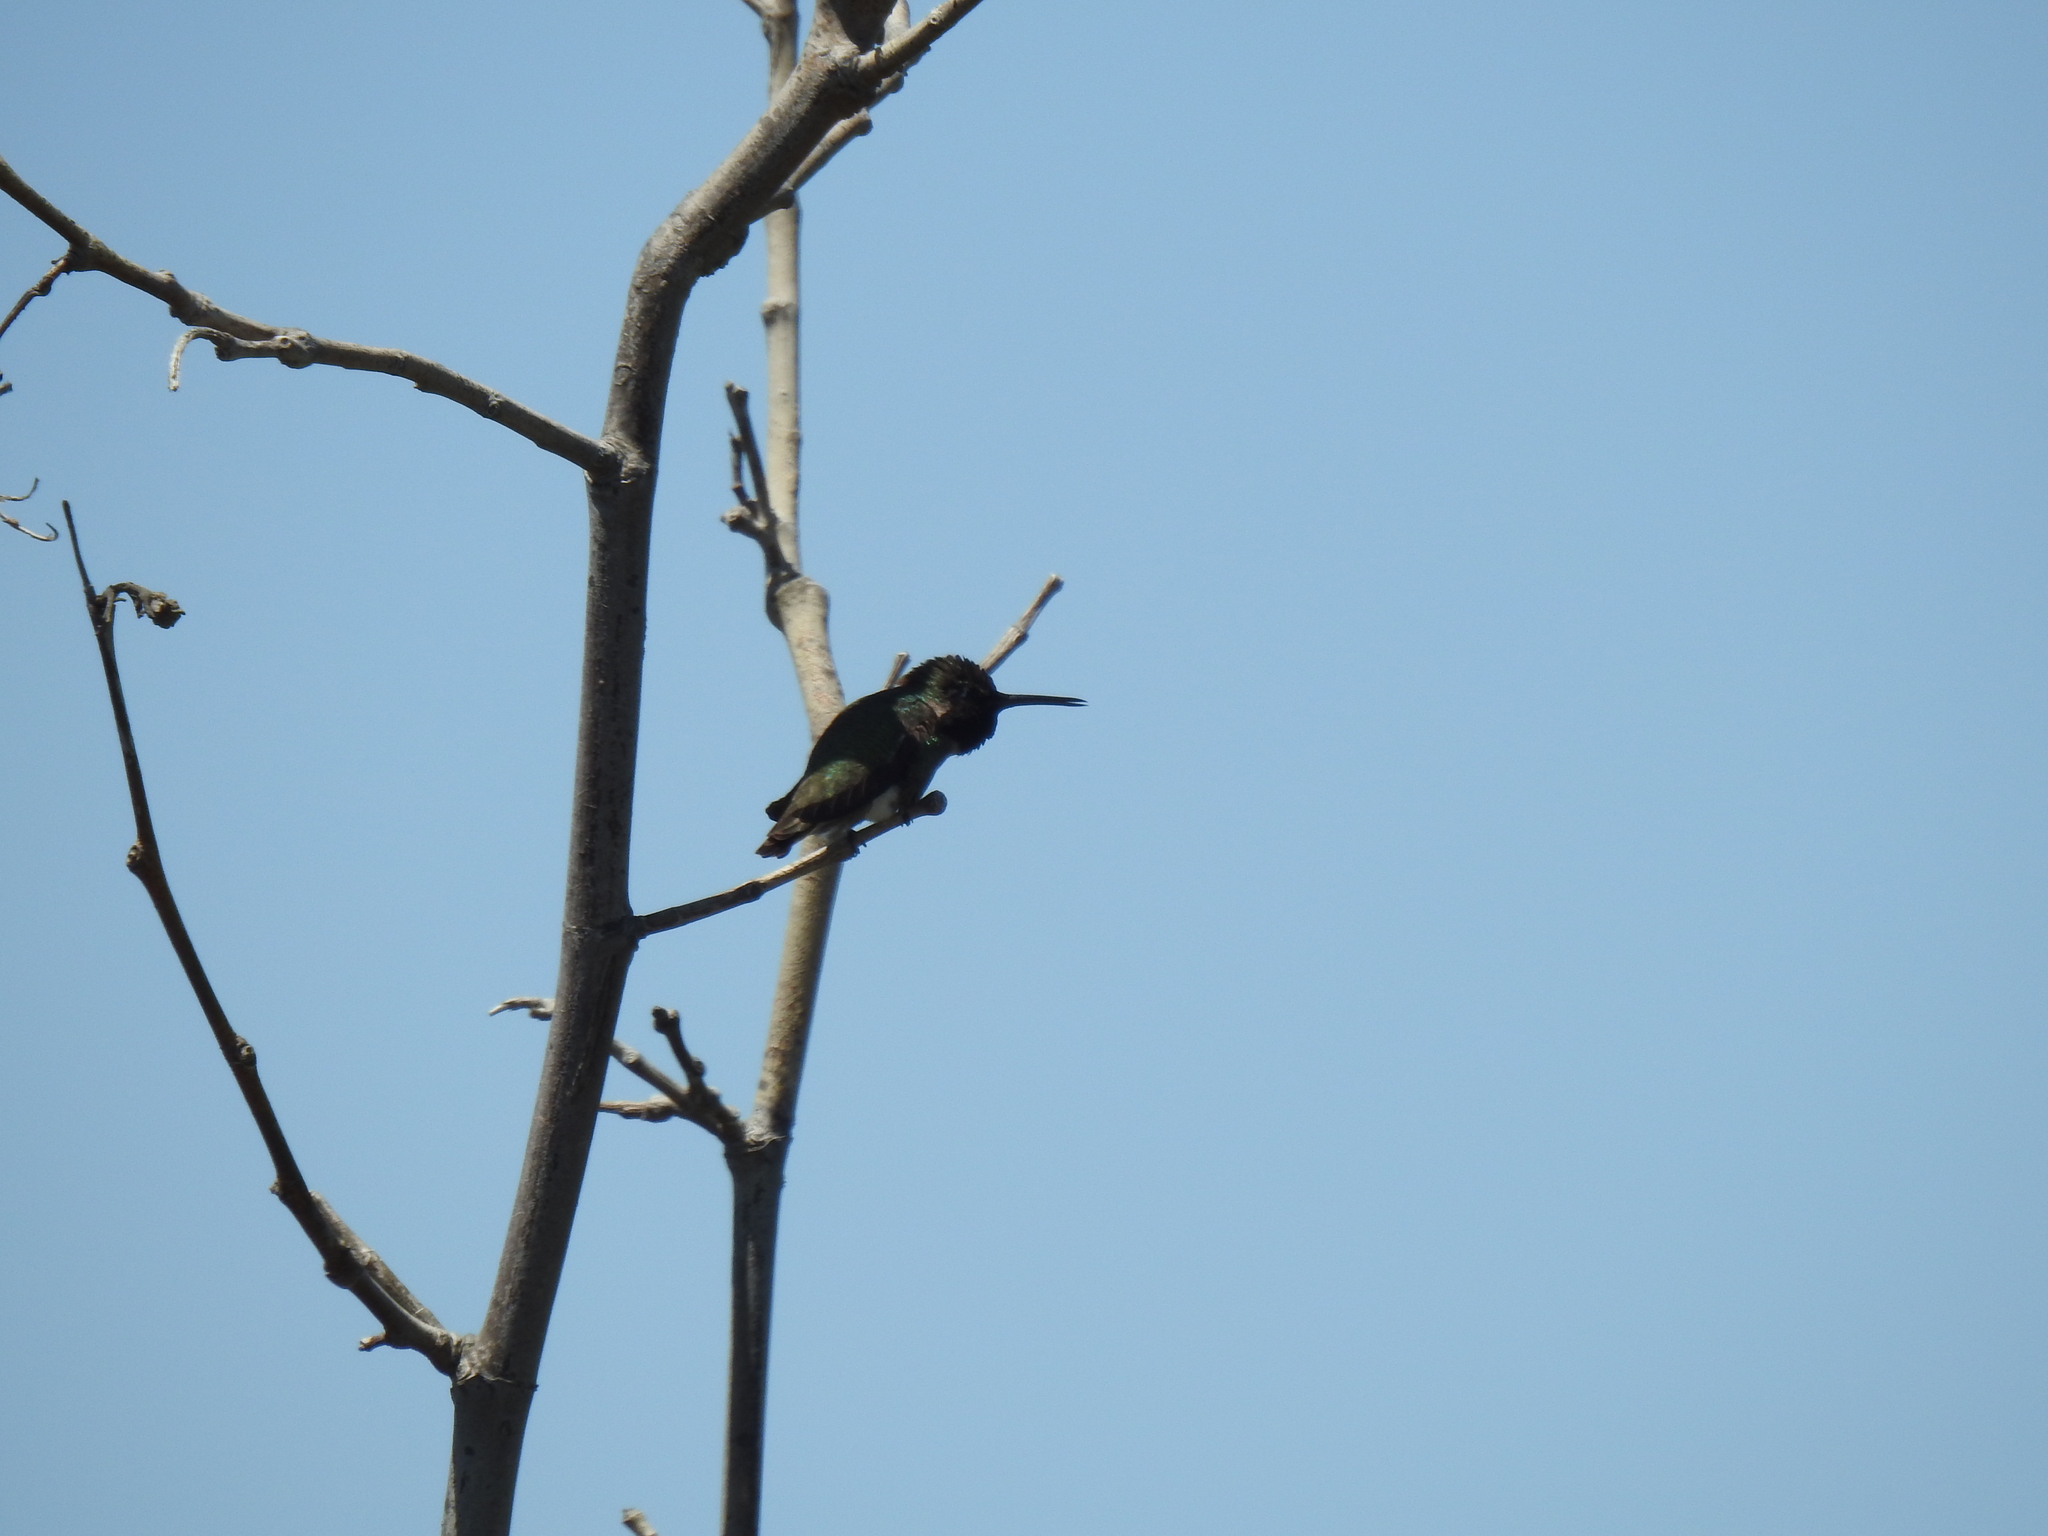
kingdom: Animalia
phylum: Chordata
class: Aves
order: Apodiformes
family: Trochilidae
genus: Calypte
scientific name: Calypte anna
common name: Anna's hummingbird
